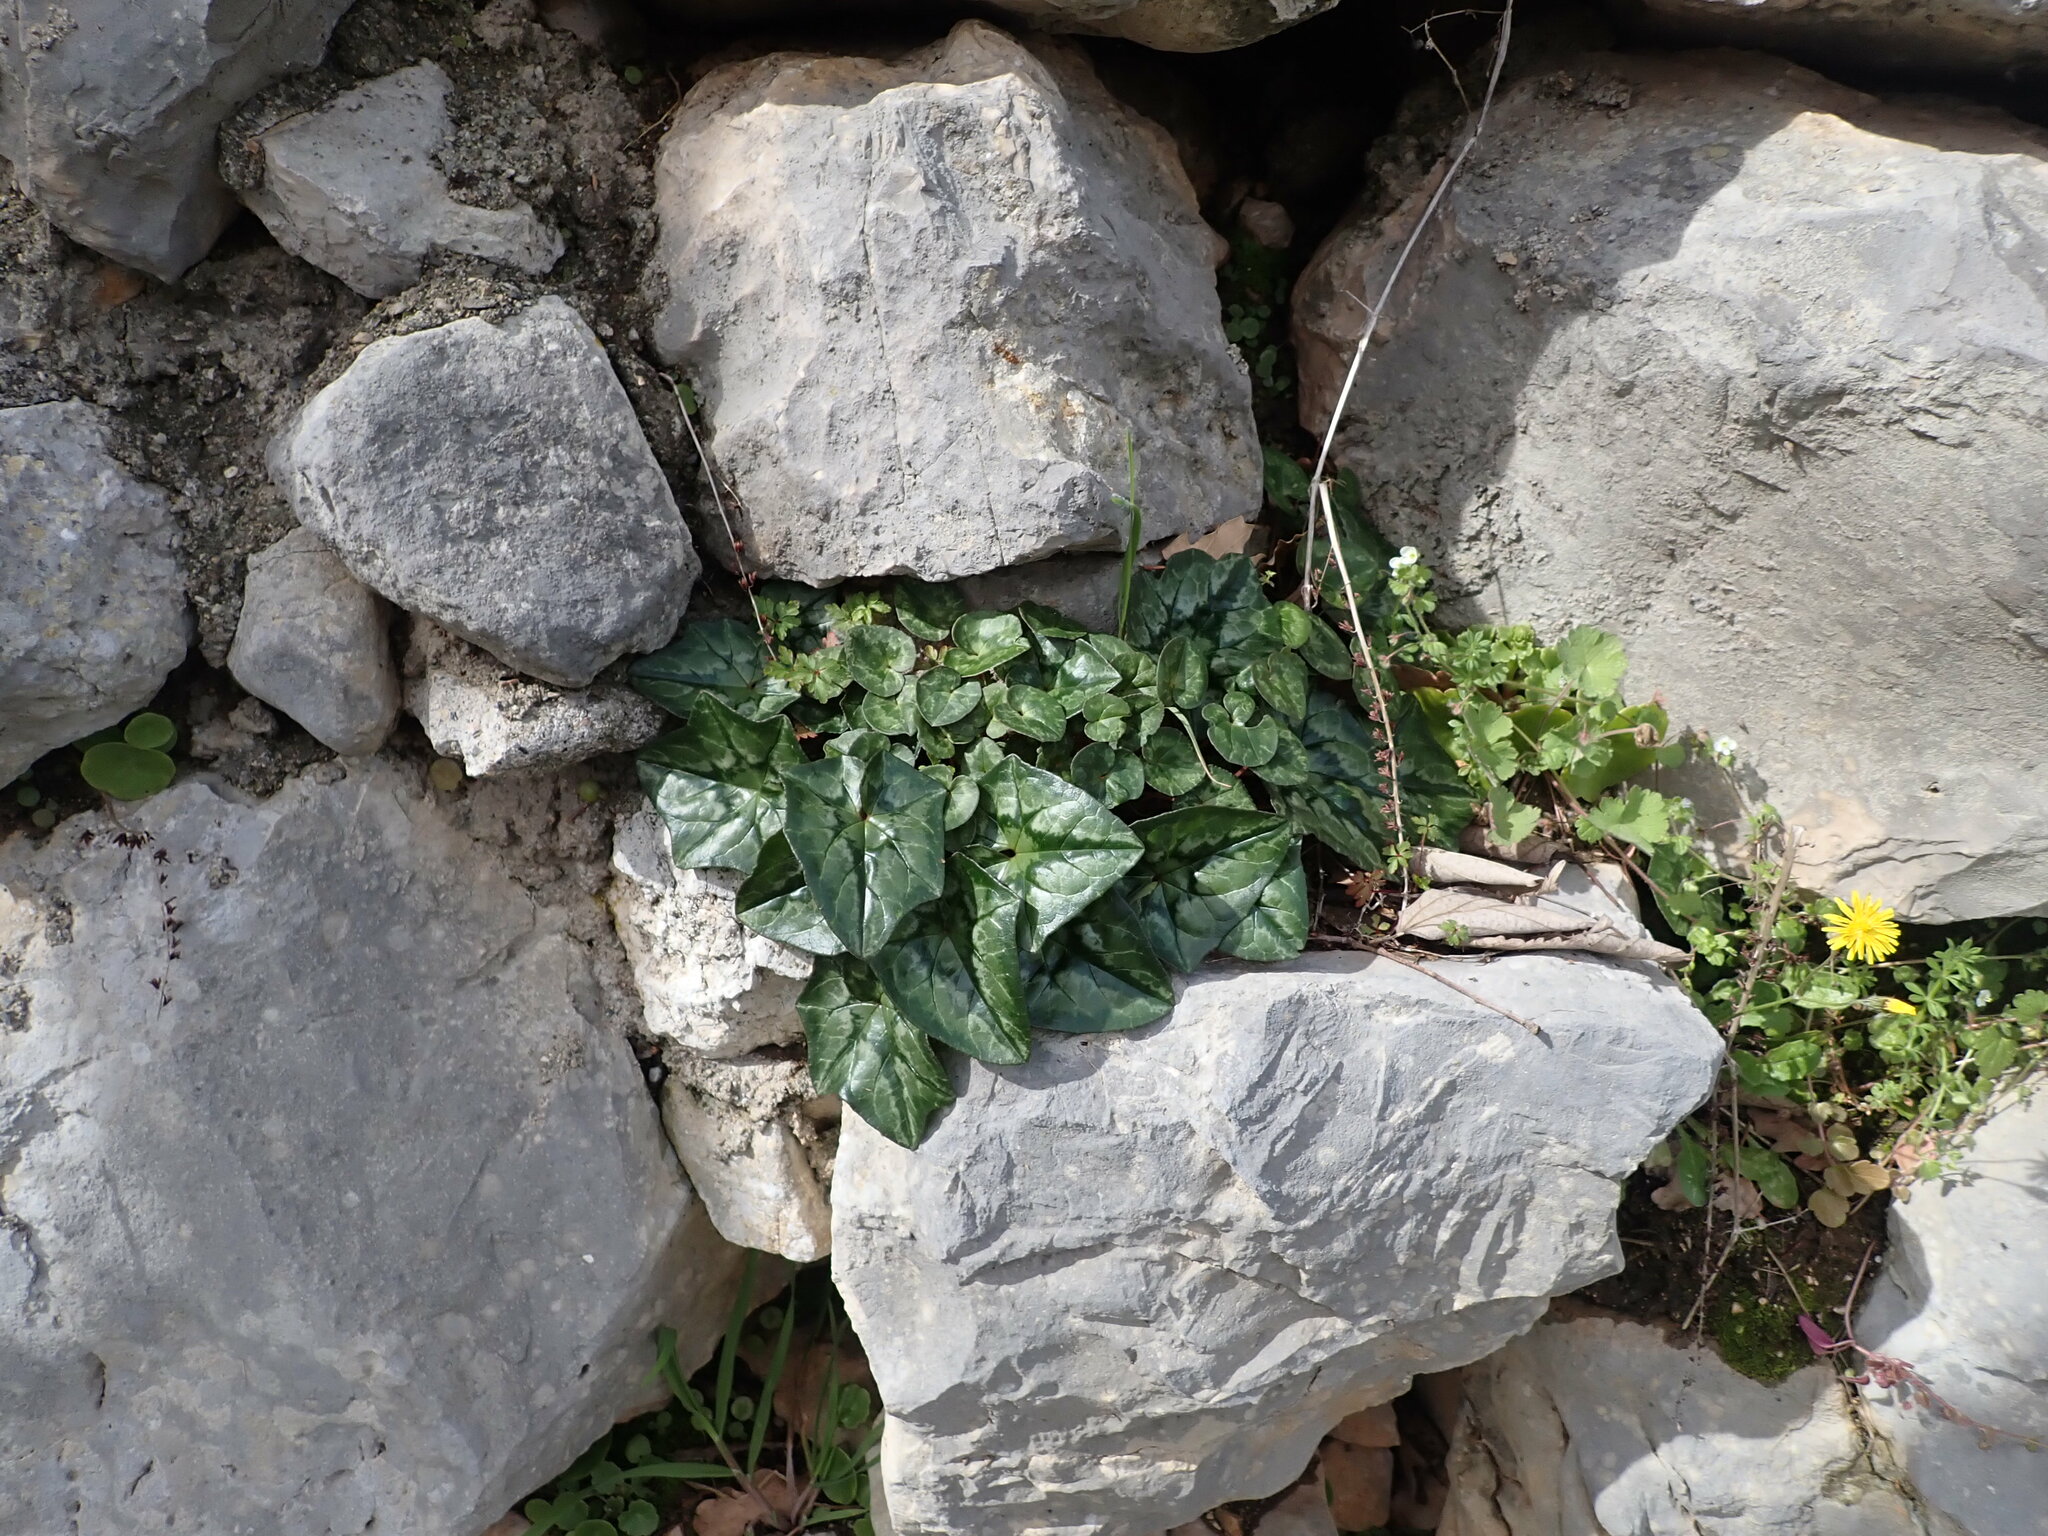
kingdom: Plantae
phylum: Tracheophyta
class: Magnoliopsida
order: Ericales
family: Primulaceae
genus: Cyclamen
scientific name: Cyclamen hederifolium
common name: Sowbread
